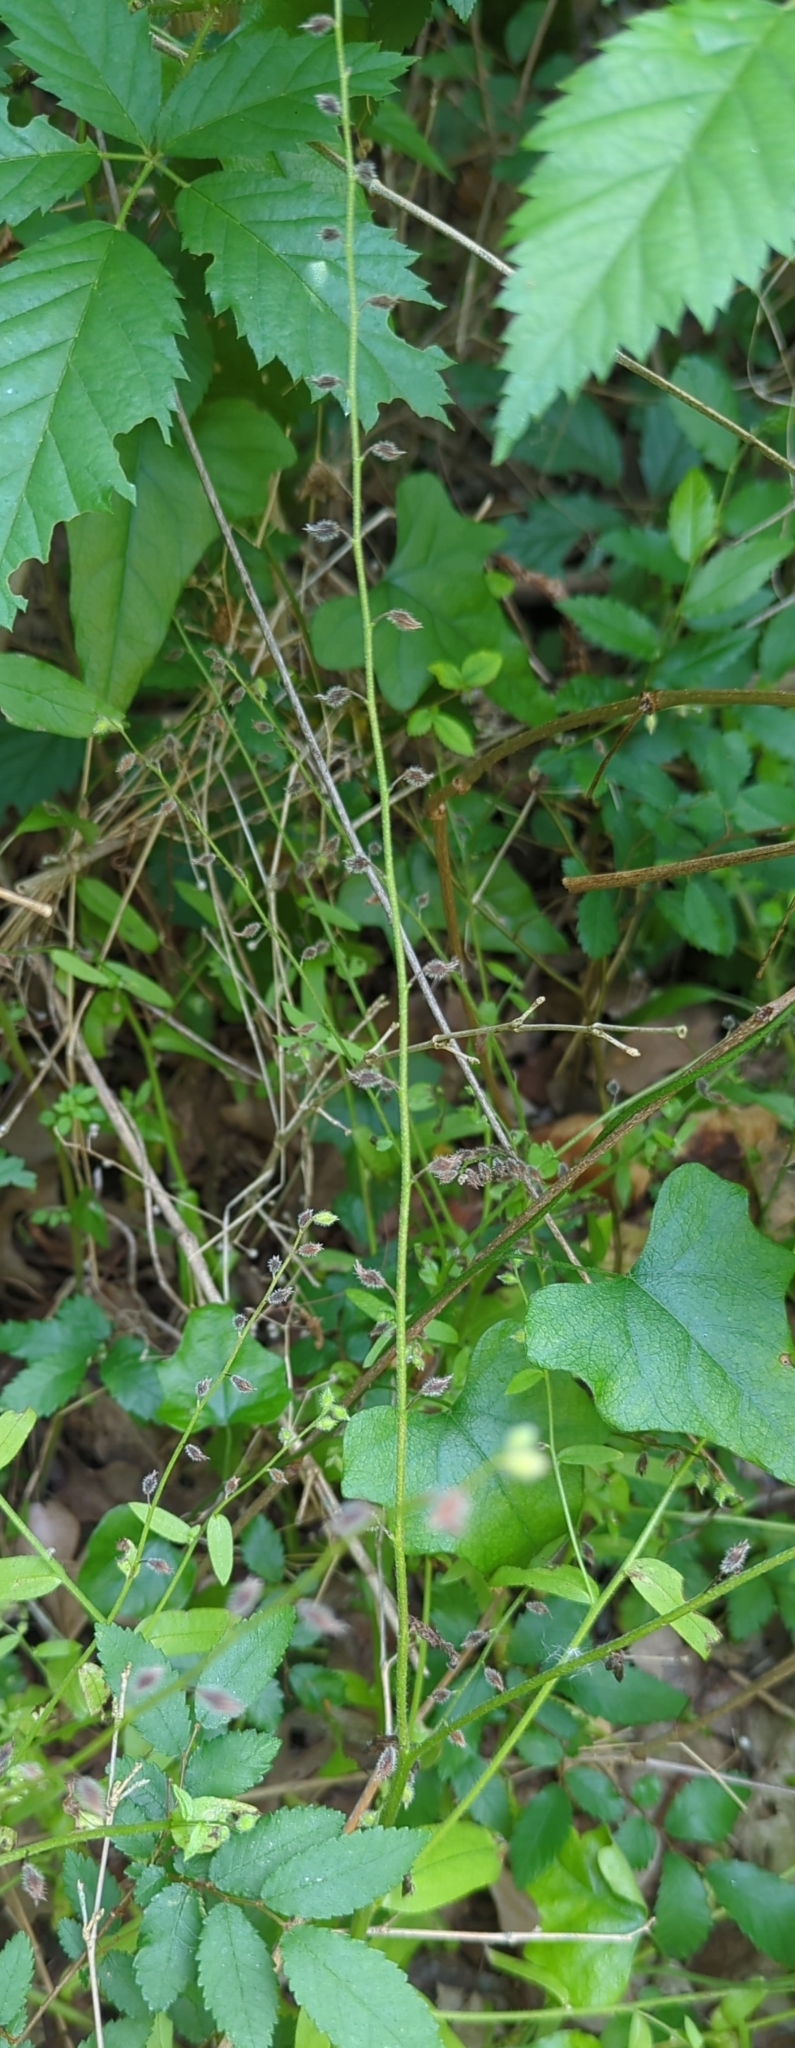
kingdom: Plantae
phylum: Tracheophyta
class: Magnoliopsida
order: Boraginales
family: Boraginaceae
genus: Myosotis
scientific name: Myosotis macrosperma
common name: Large-seed forget-me-not
